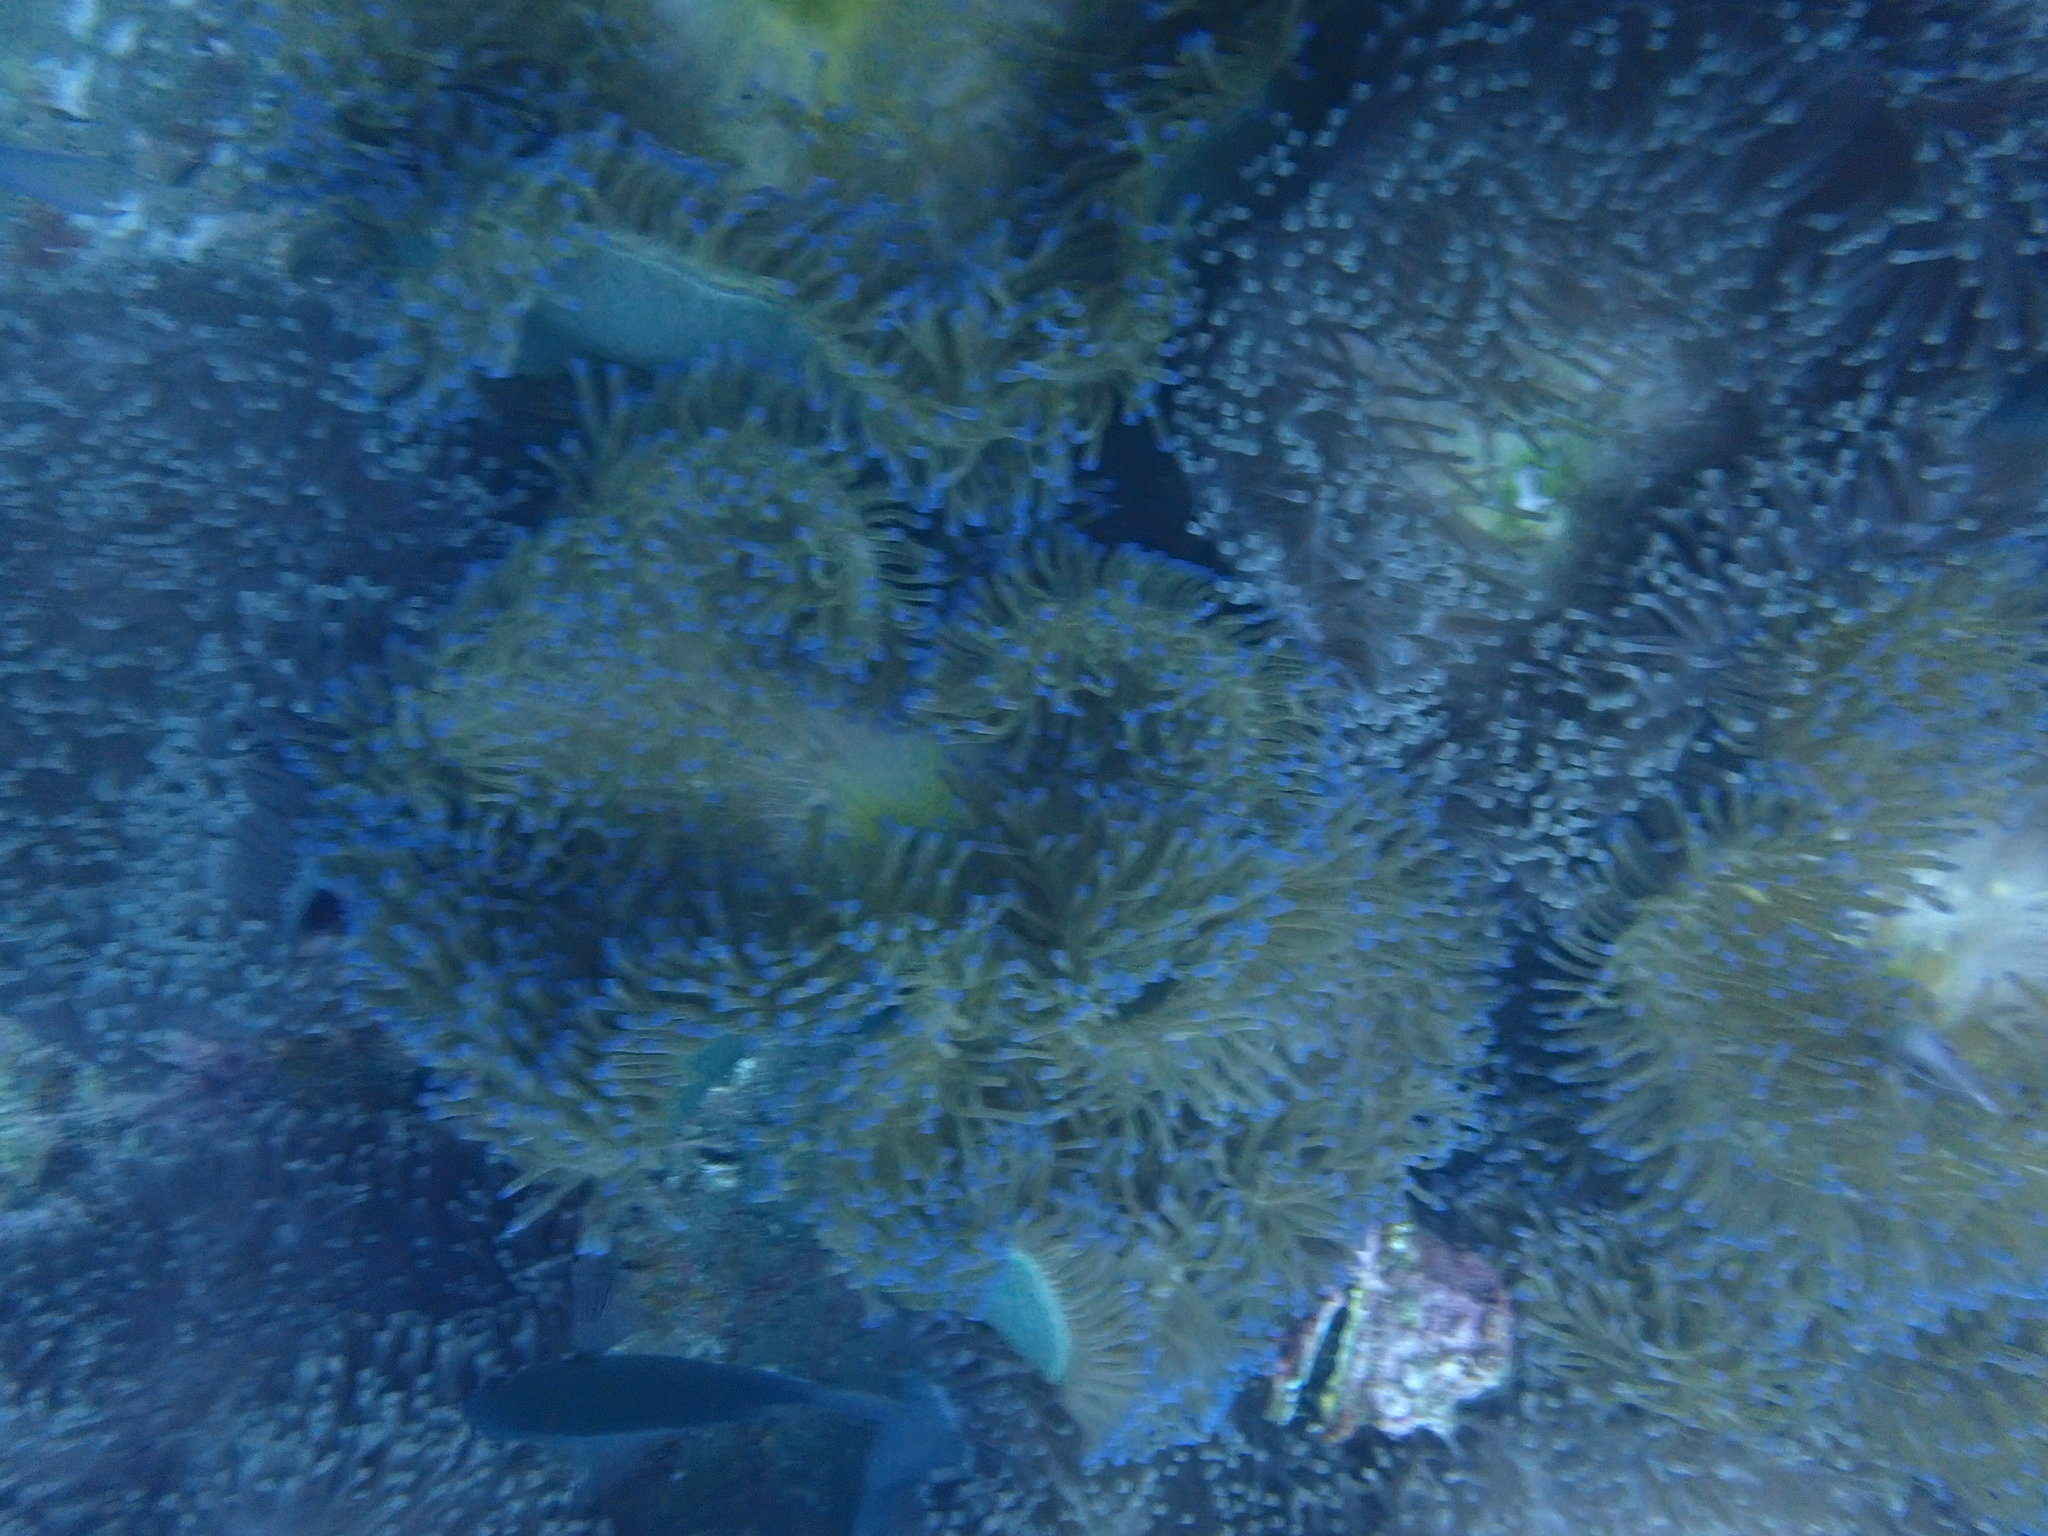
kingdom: Animalia
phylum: Cnidaria
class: Anthozoa
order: Actiniaria
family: Stichodactylidae
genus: Radianthus
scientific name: Radianthus magnifica
